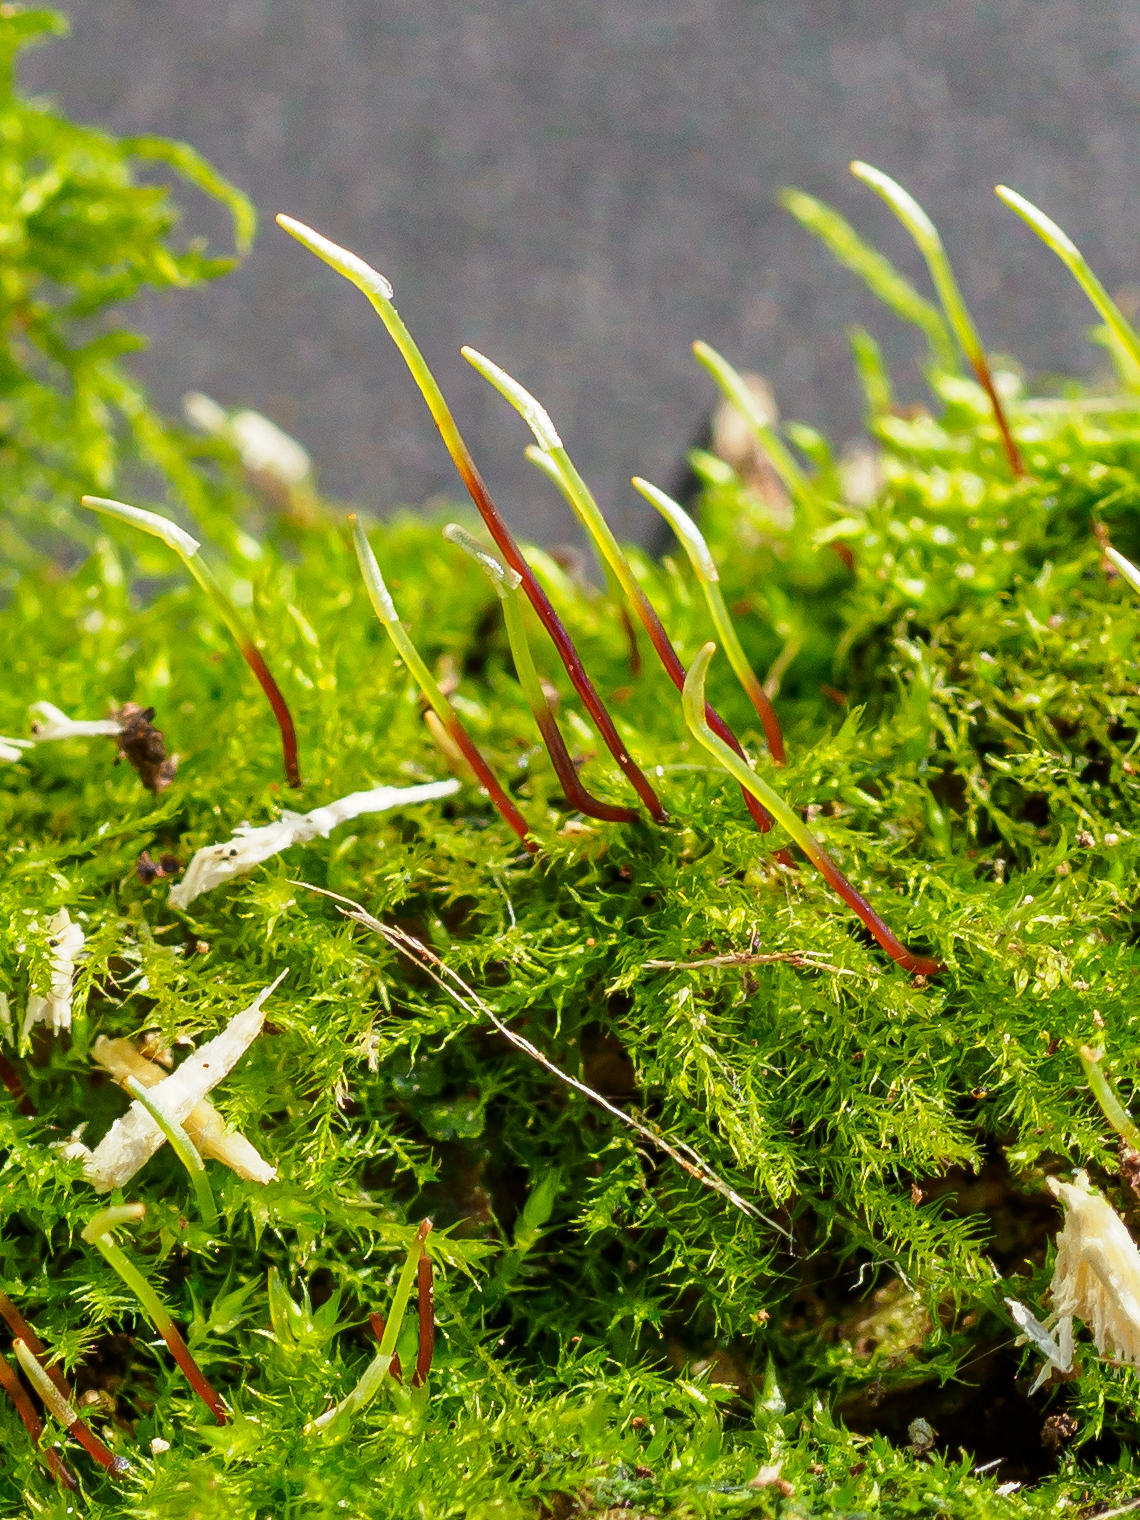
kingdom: Plantae
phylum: Bryophyta
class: Bryopsida
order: Hypnales
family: Amblystegiaceae
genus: Amblystegium
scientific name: Amblystegium serpens
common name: Jurkatzka's feather moss
